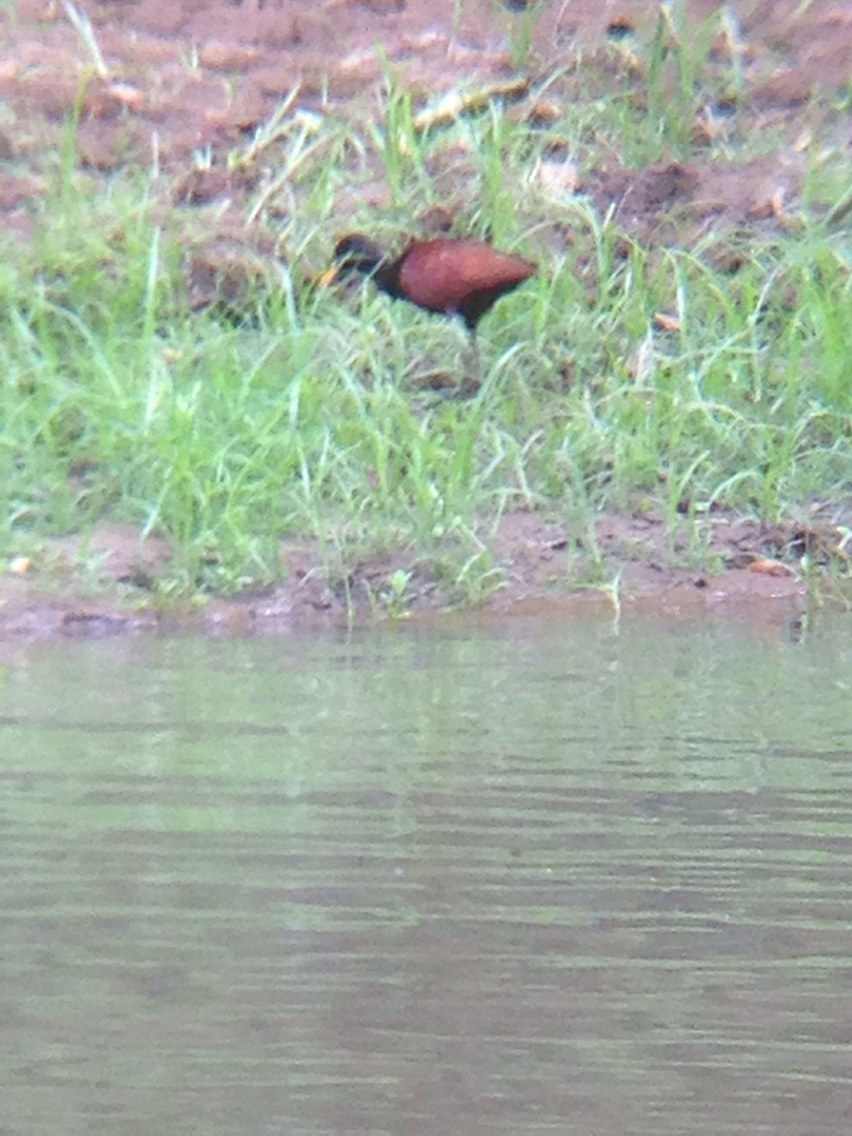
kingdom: Animalia
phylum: Chordata
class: Aves
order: Charadriiformes
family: Jacanidae
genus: Jacana
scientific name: Jacana spinosa
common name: Northern jacana
